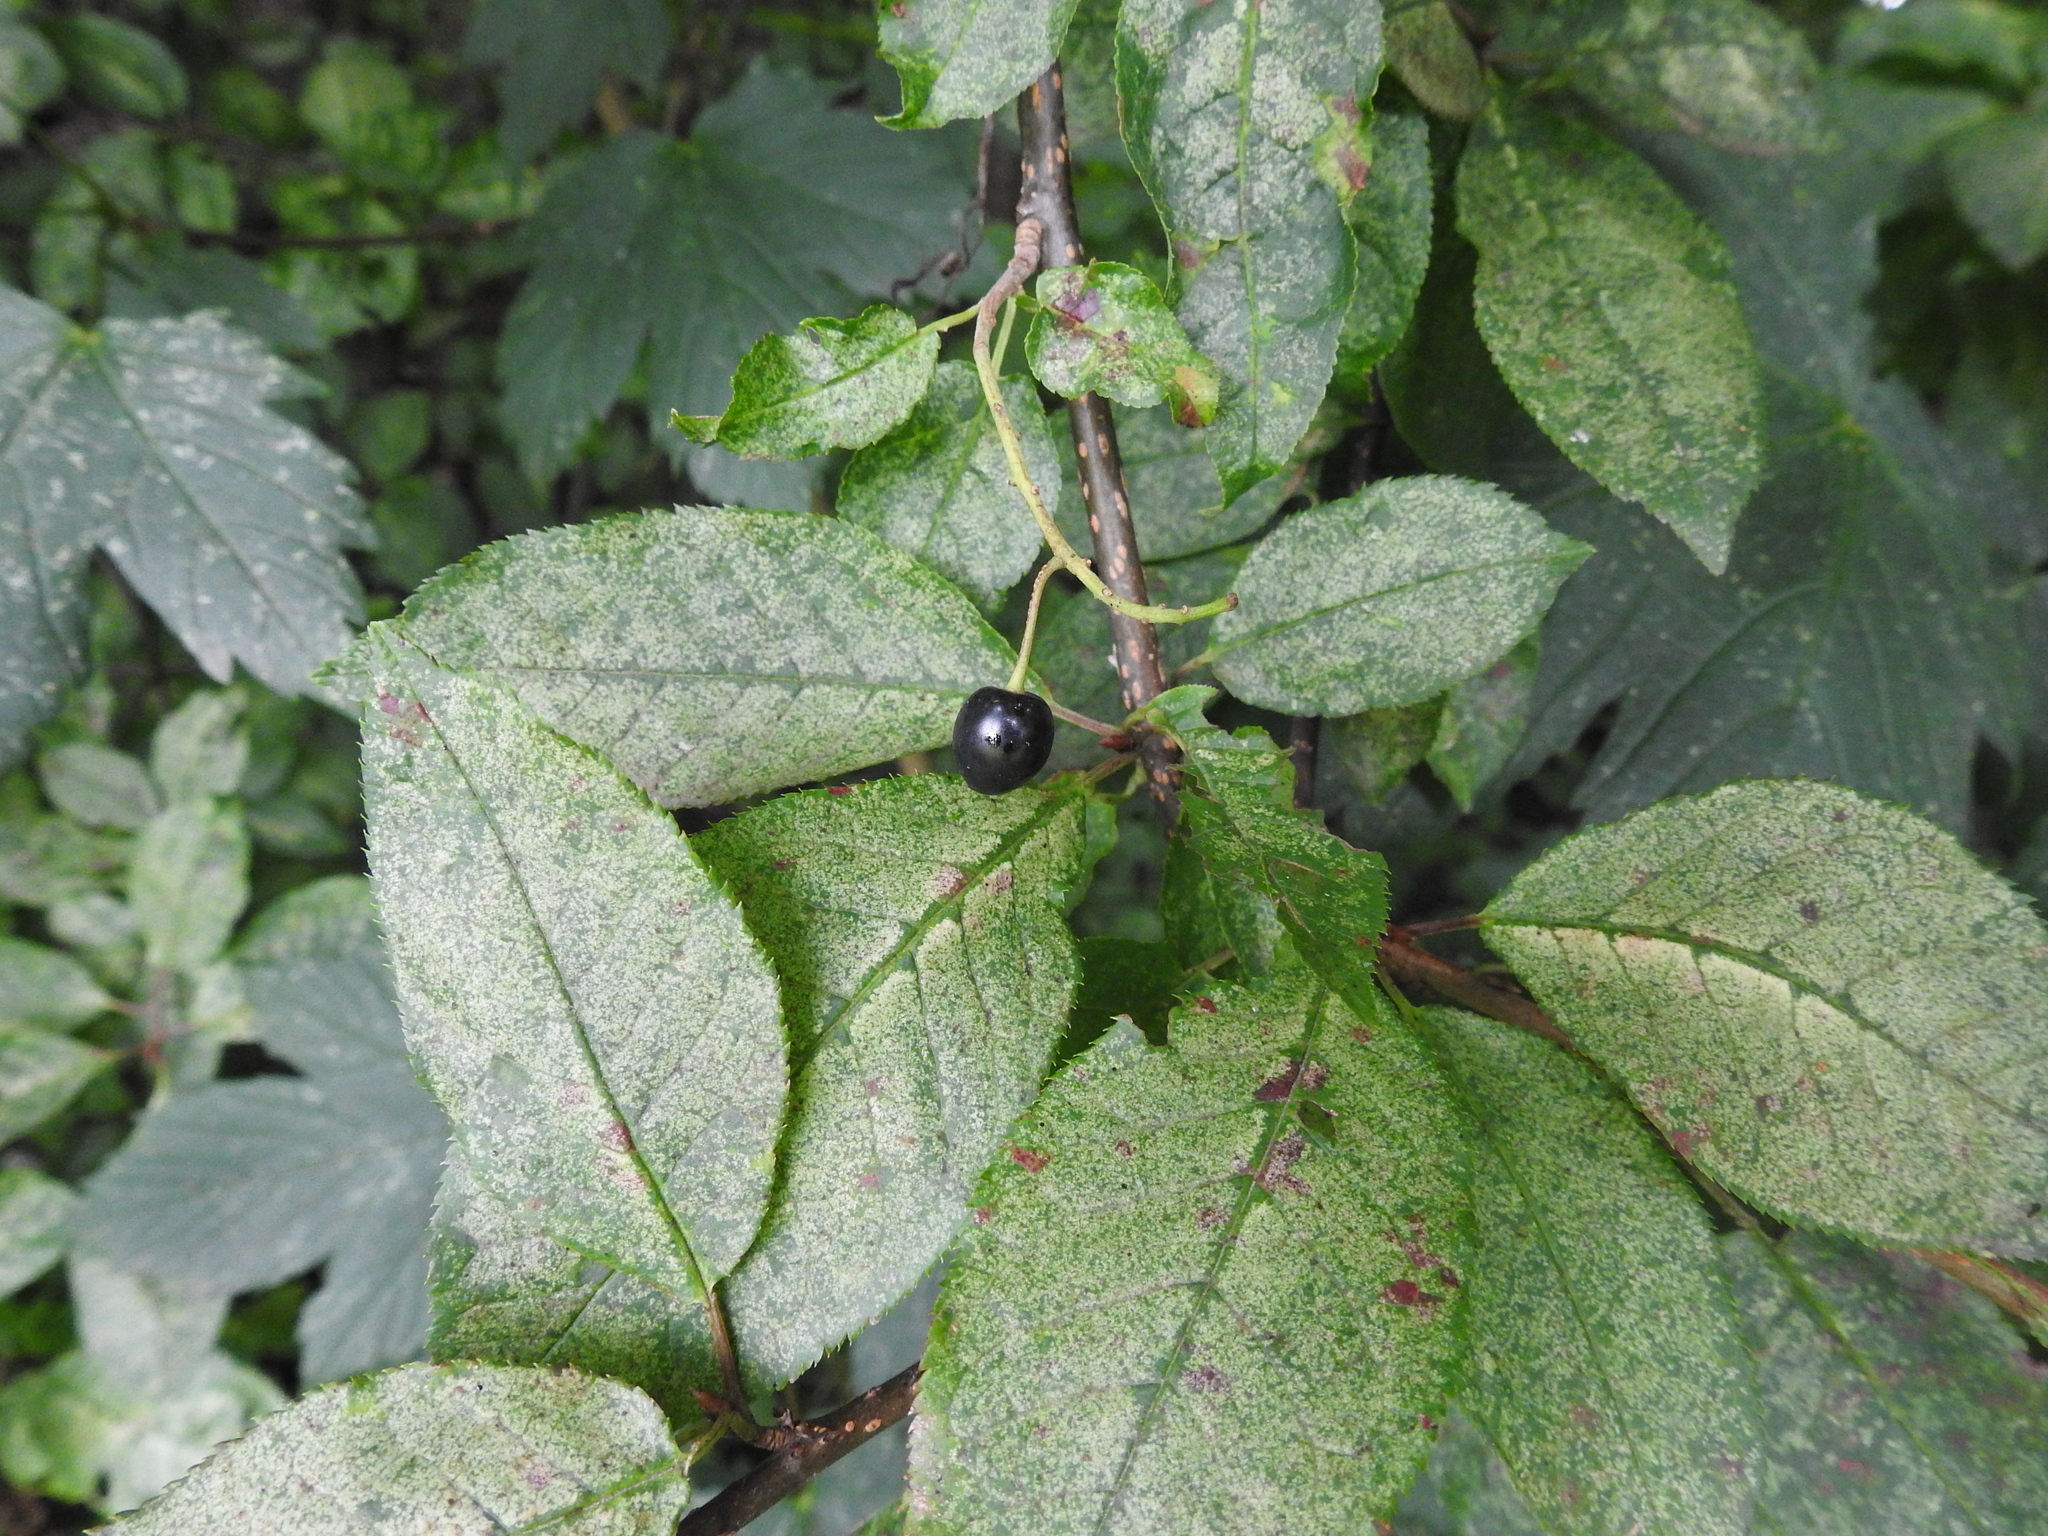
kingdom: Plantae
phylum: Tracheophyta
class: Magnoliopsida
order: Rosales
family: Rosaceae
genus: Prunus
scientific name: Prunus padus
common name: Bird cherry
